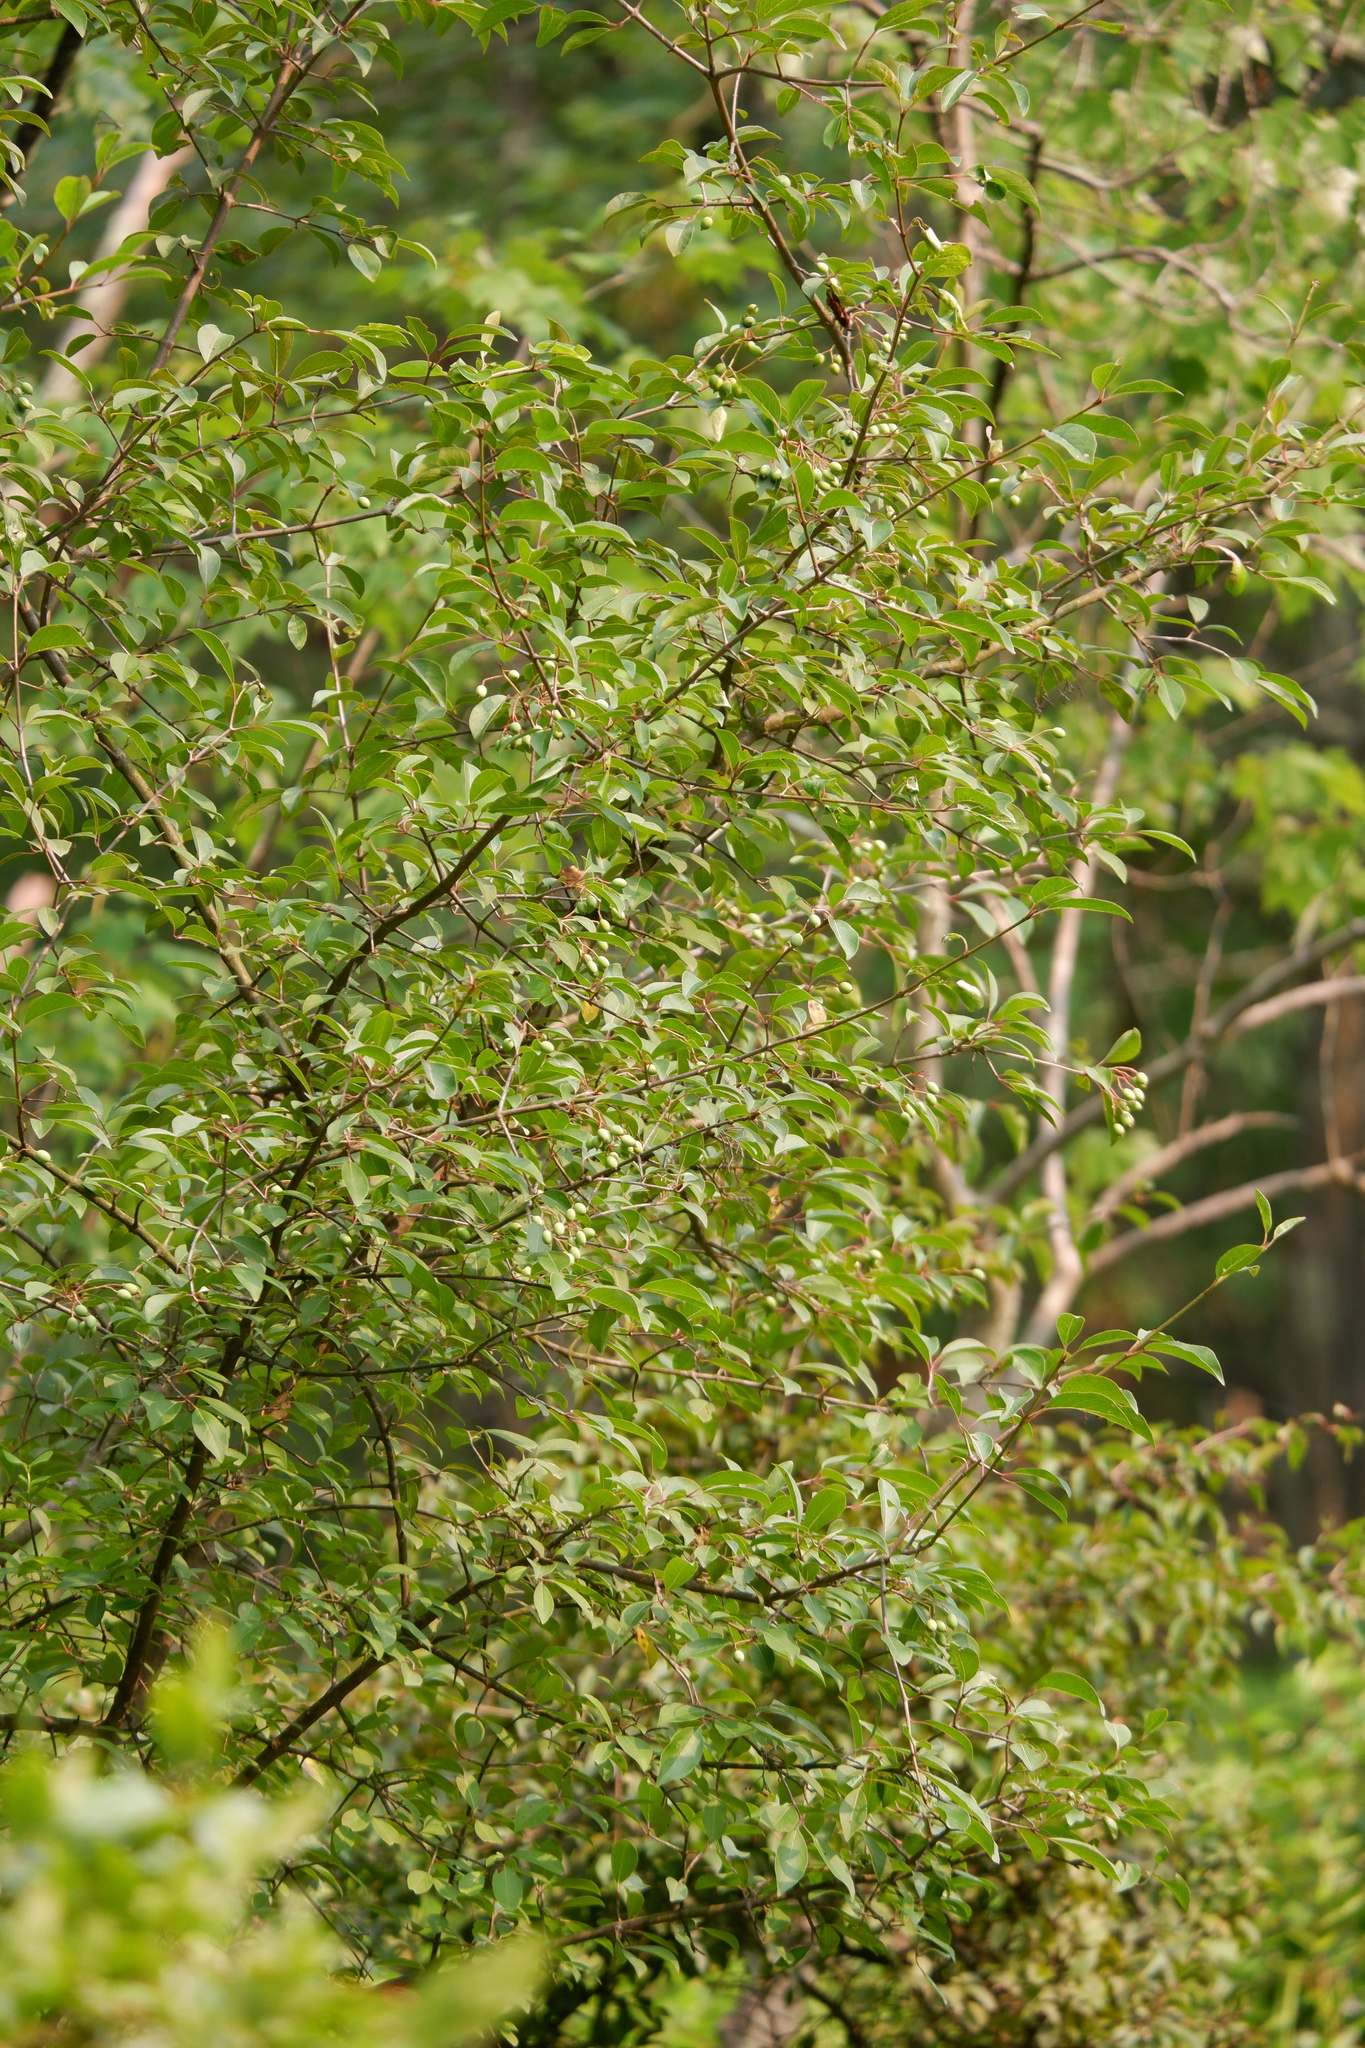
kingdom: Plantae
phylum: Tracheophyta
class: Magnoliopsida
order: Dipsacales
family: Viburnaceae
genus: Viburnum
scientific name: Viburnum prunifolium
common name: Black haw
